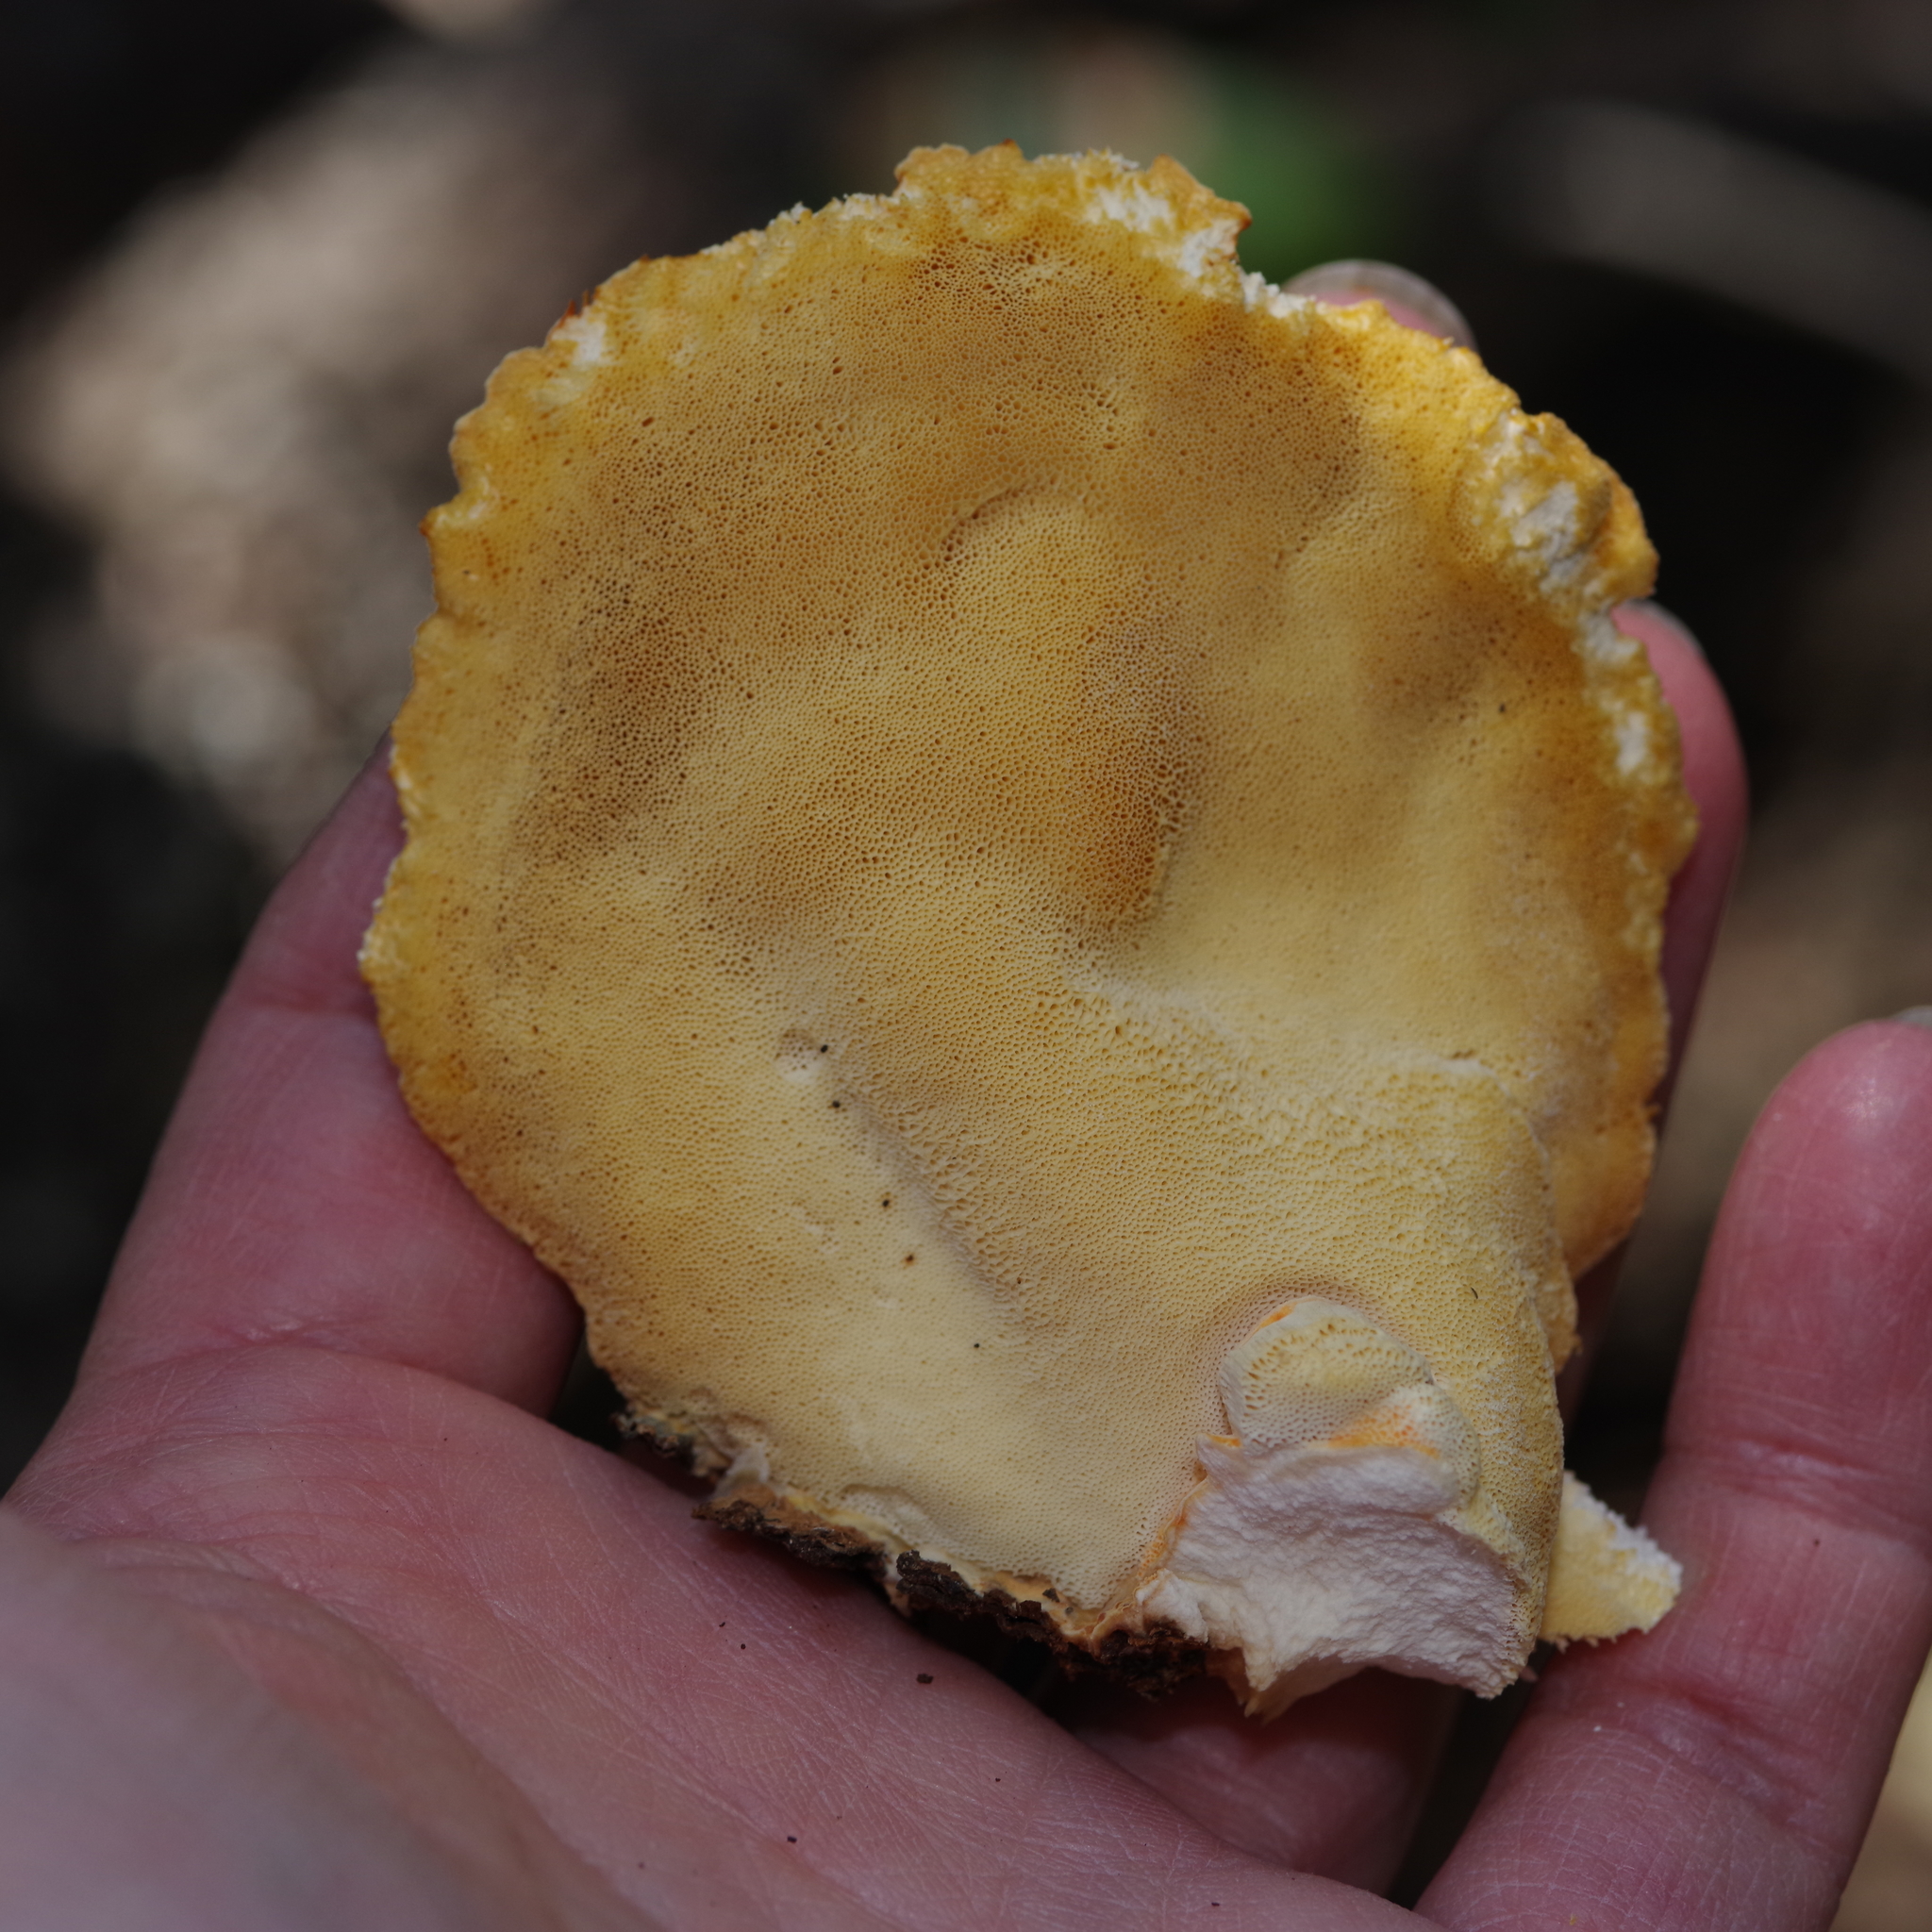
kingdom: Fungi
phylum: Basidiomycota
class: Agaricomycetes
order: Polyporales
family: Laetiporaceae
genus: Laetiporus
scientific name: Laetiporus sulphureus
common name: Chicken of the woods
